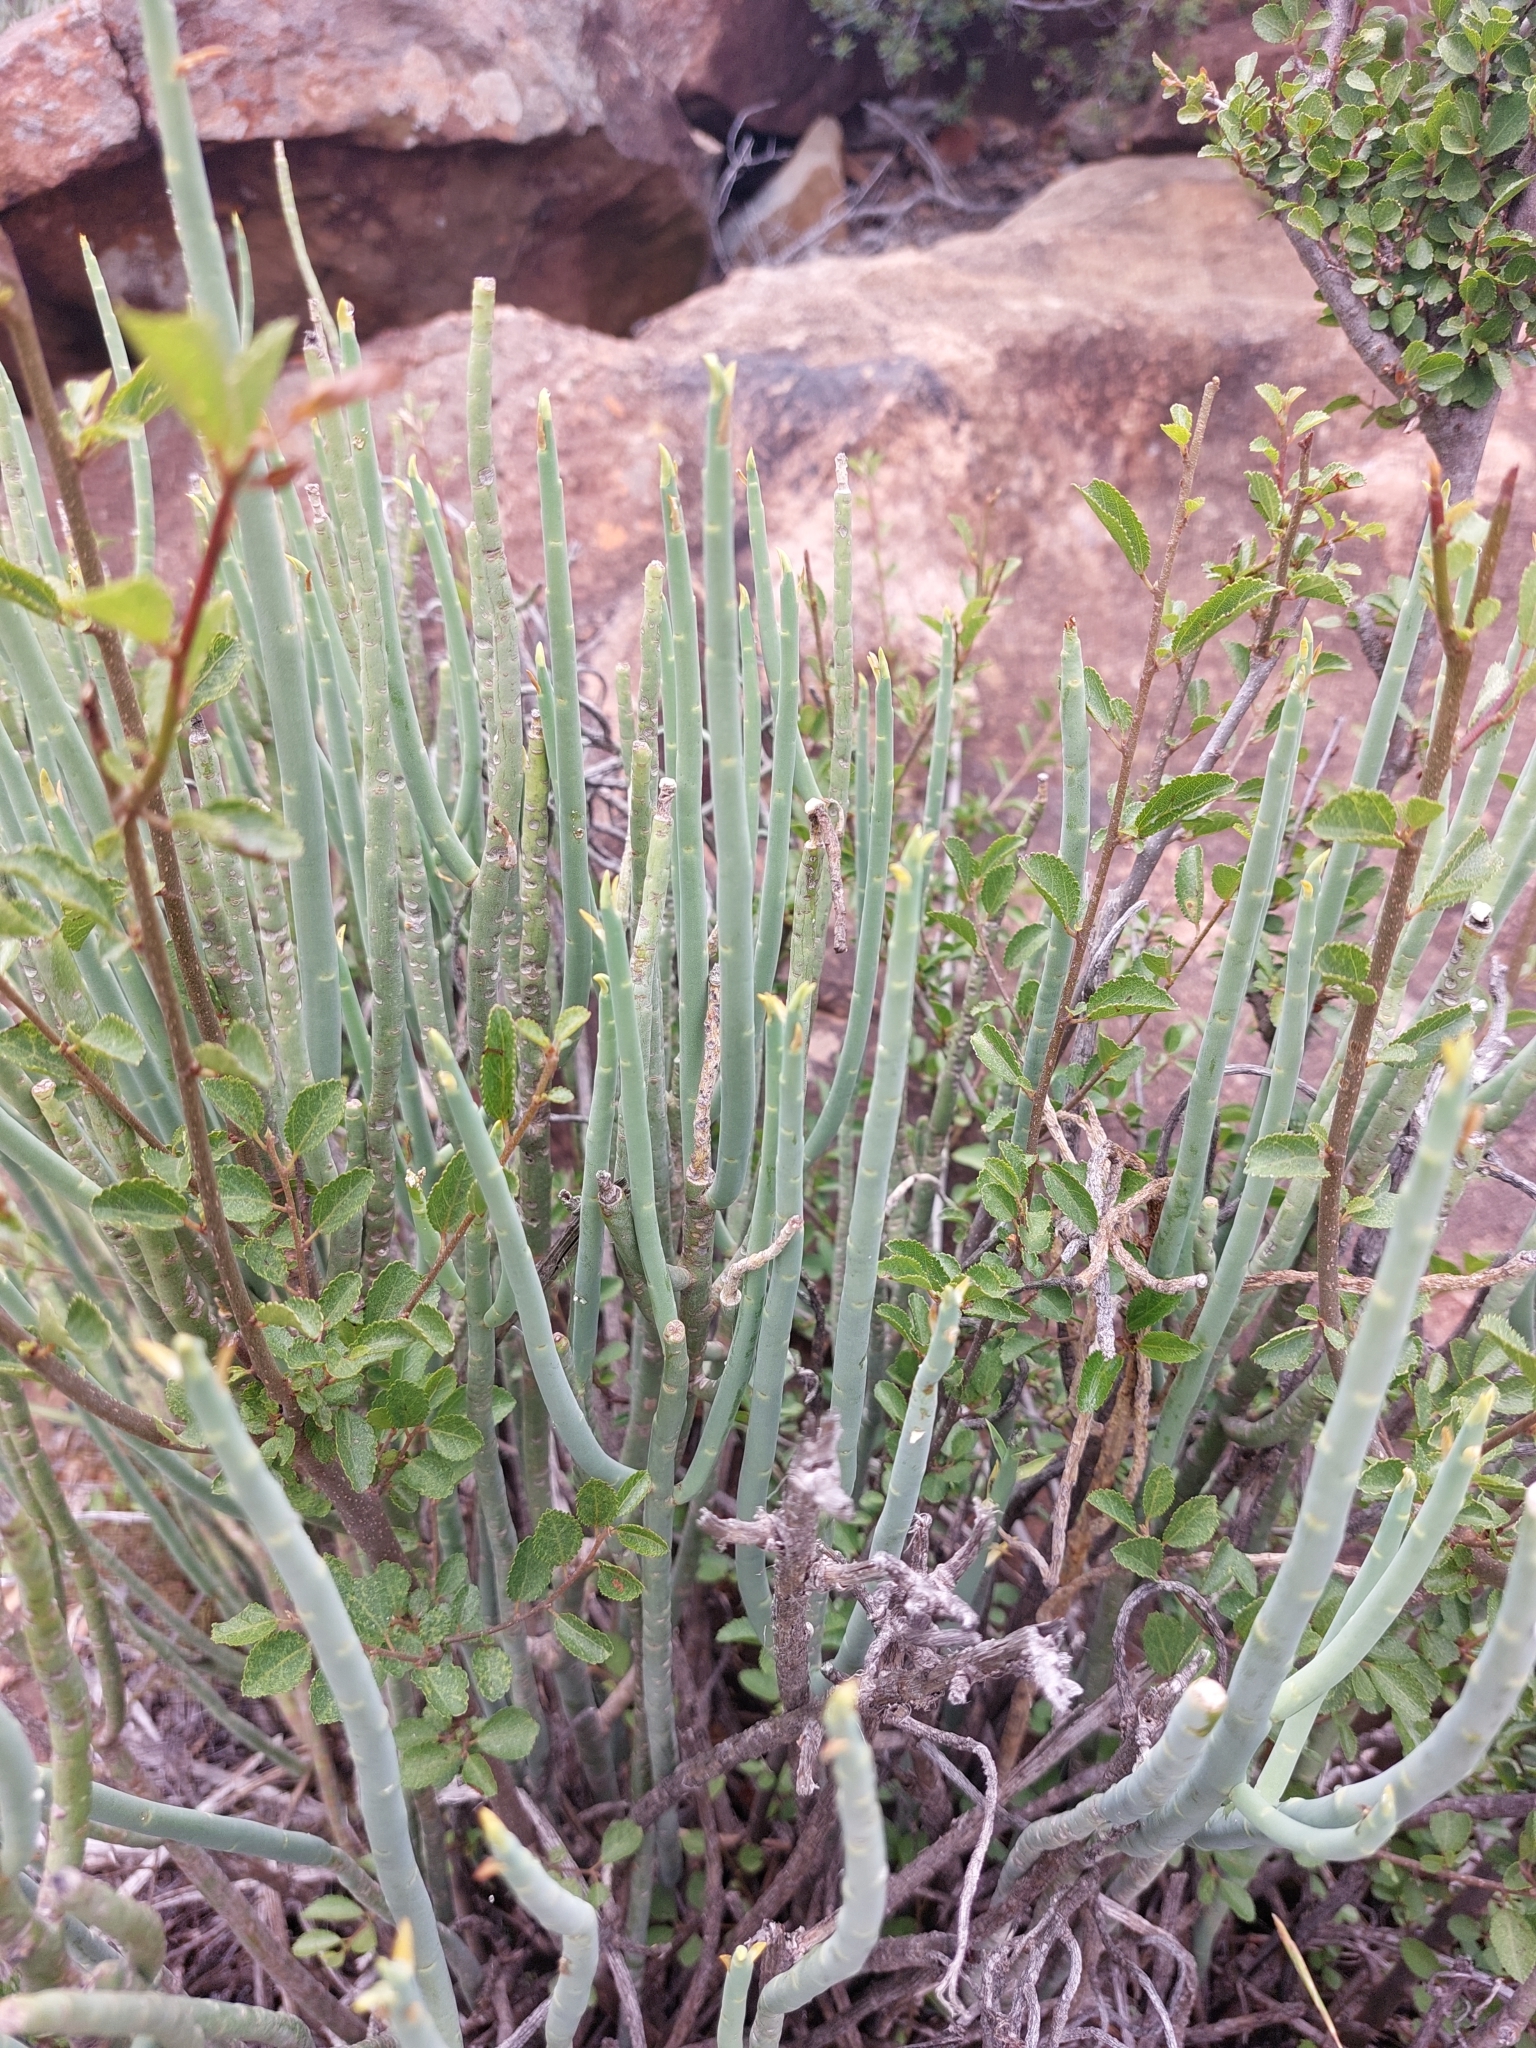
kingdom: Plantae
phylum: Tracheophyta
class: Magnoliopsida
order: Malpighiales
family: Euphorbiaceae
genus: Euphorbia
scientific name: Euphorbia mauritanica
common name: Jackal's-food
